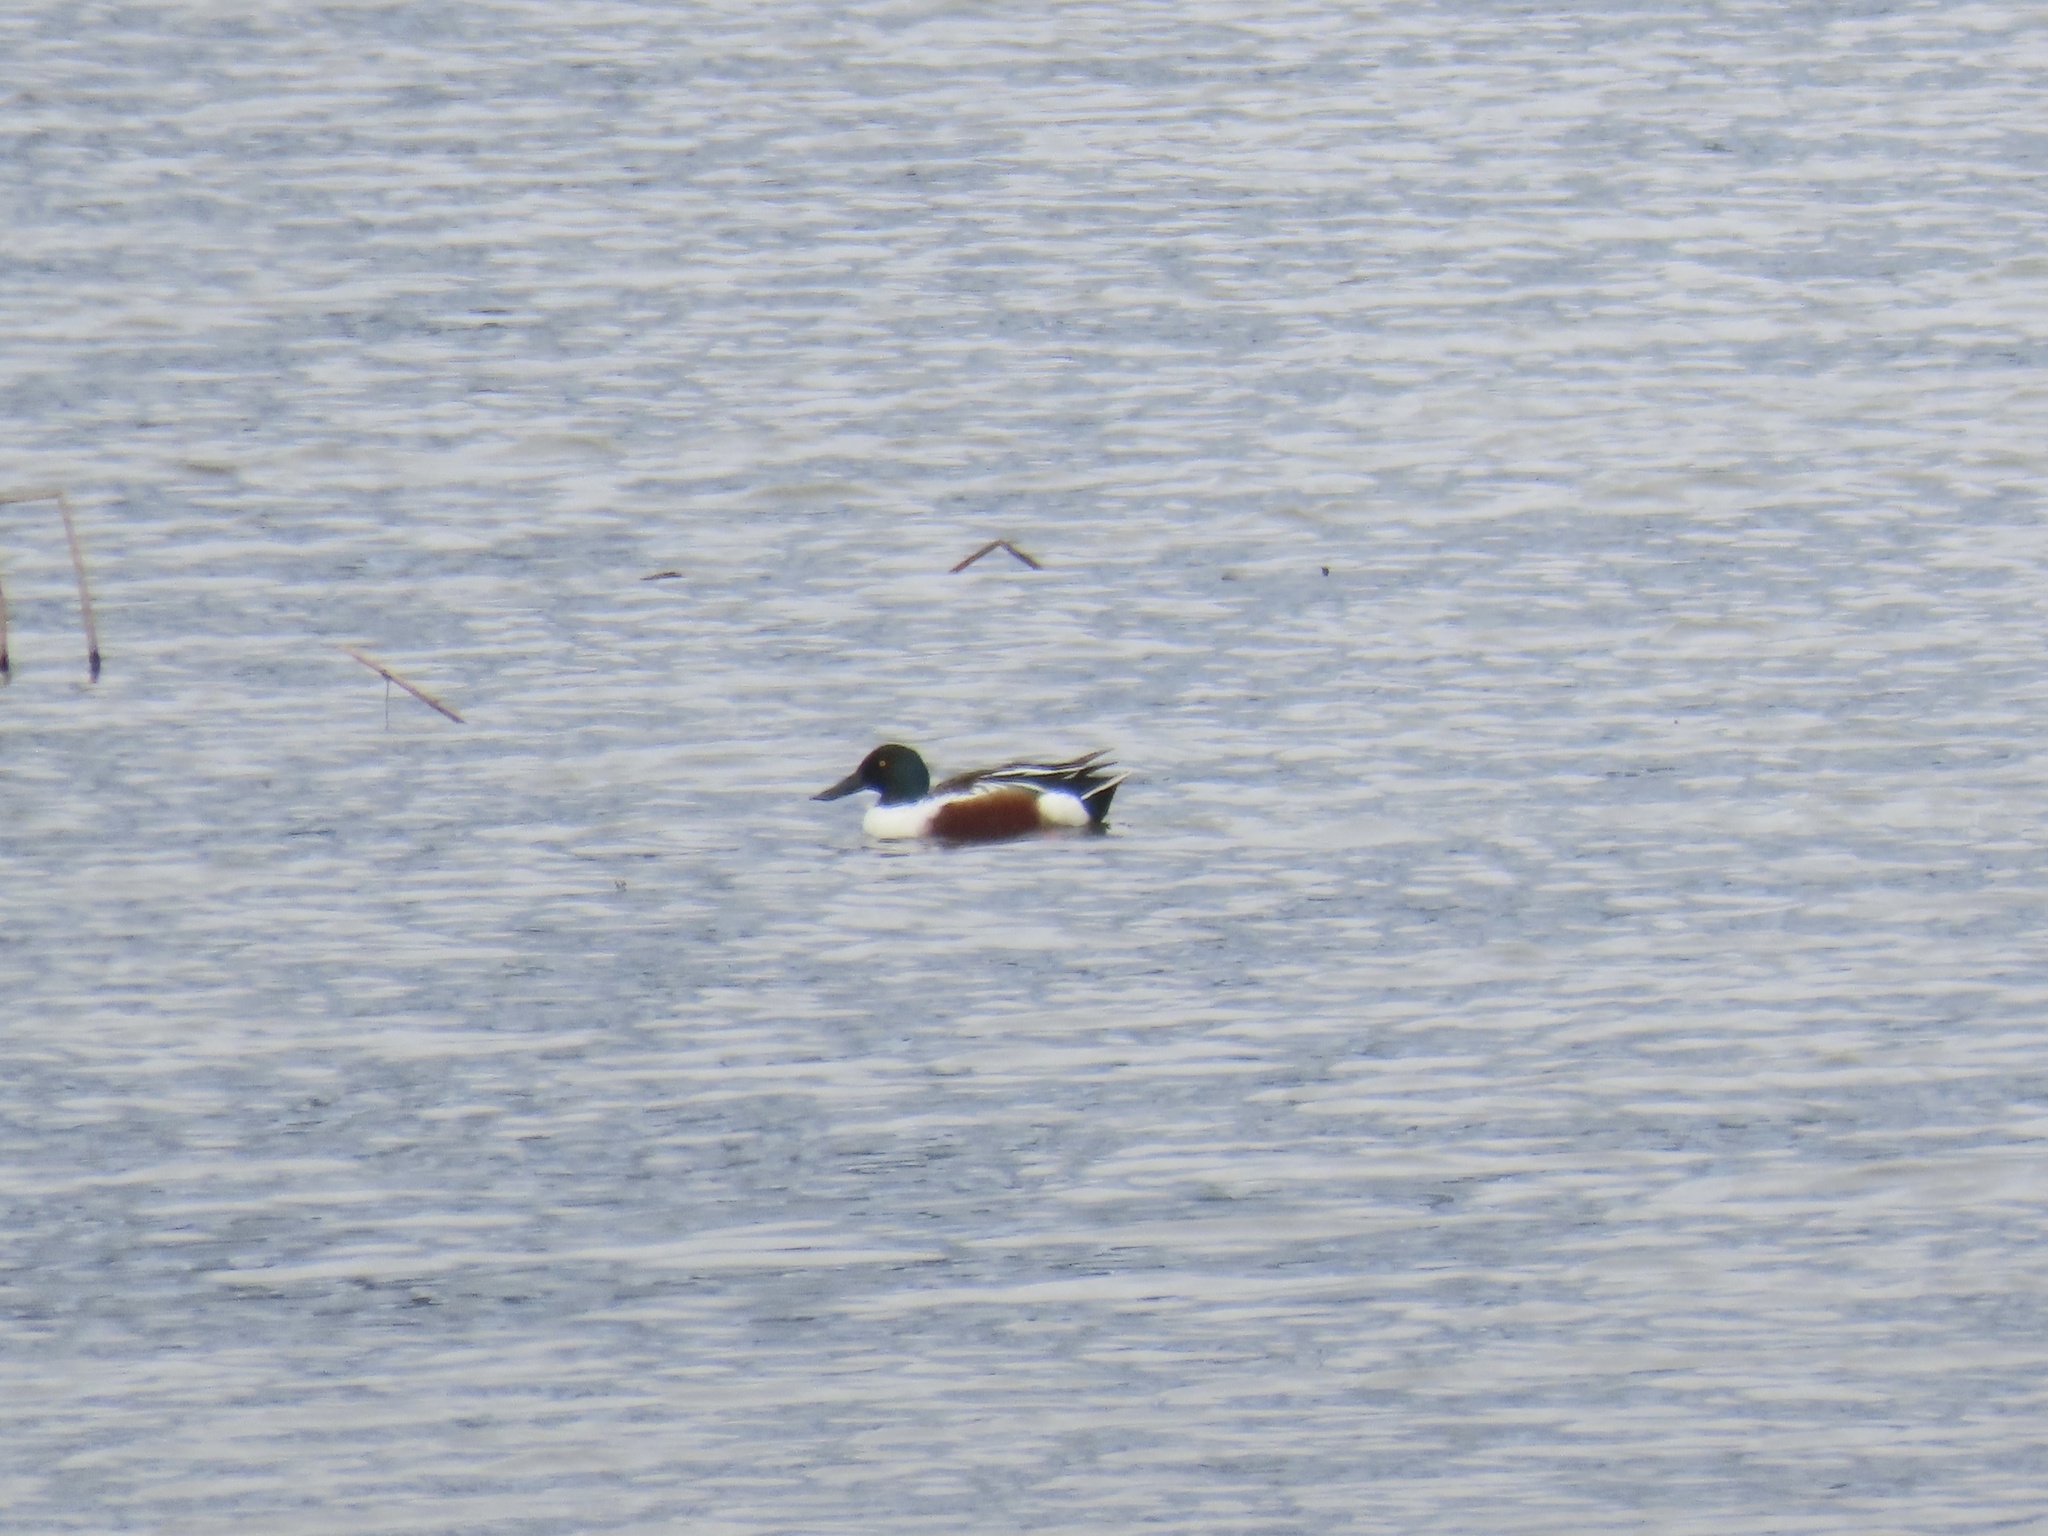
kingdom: Animalia
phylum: Chordata
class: Aves
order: Anseriformes
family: Anatidae
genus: Spatula
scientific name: Spatula clypeata
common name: Northern shoveler
